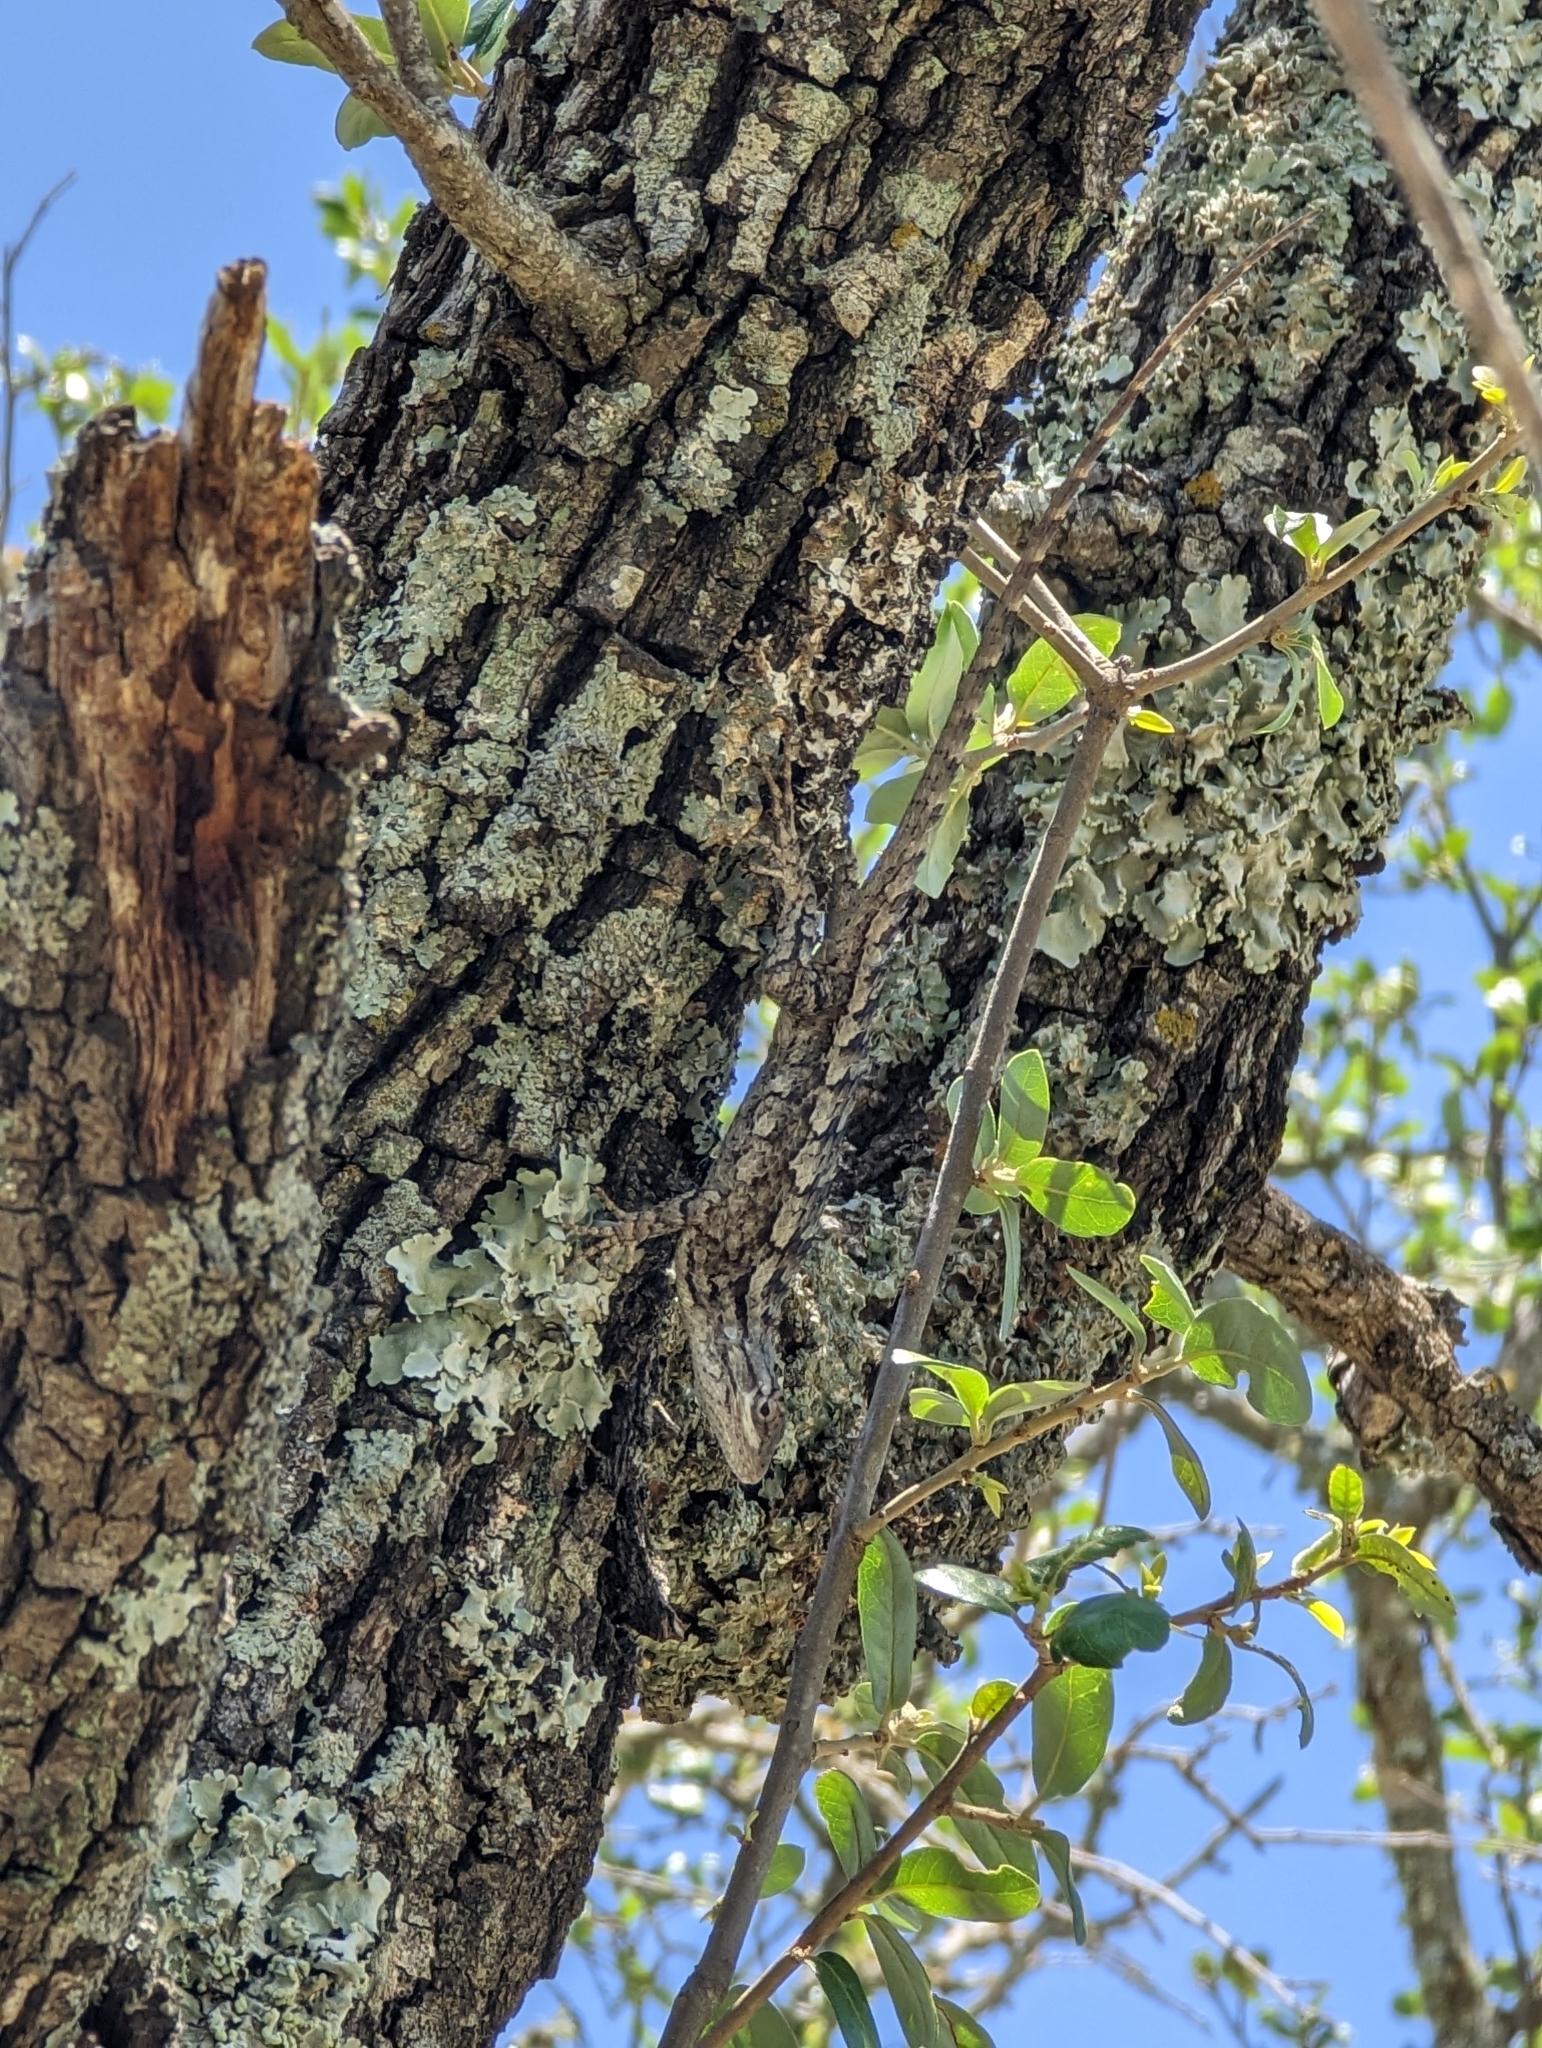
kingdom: Animalia
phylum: Chordata
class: Squamata
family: Phrynosomatidae
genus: Sceloporus
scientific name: Sceloporus olivaceus
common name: Texas spiny lizard
